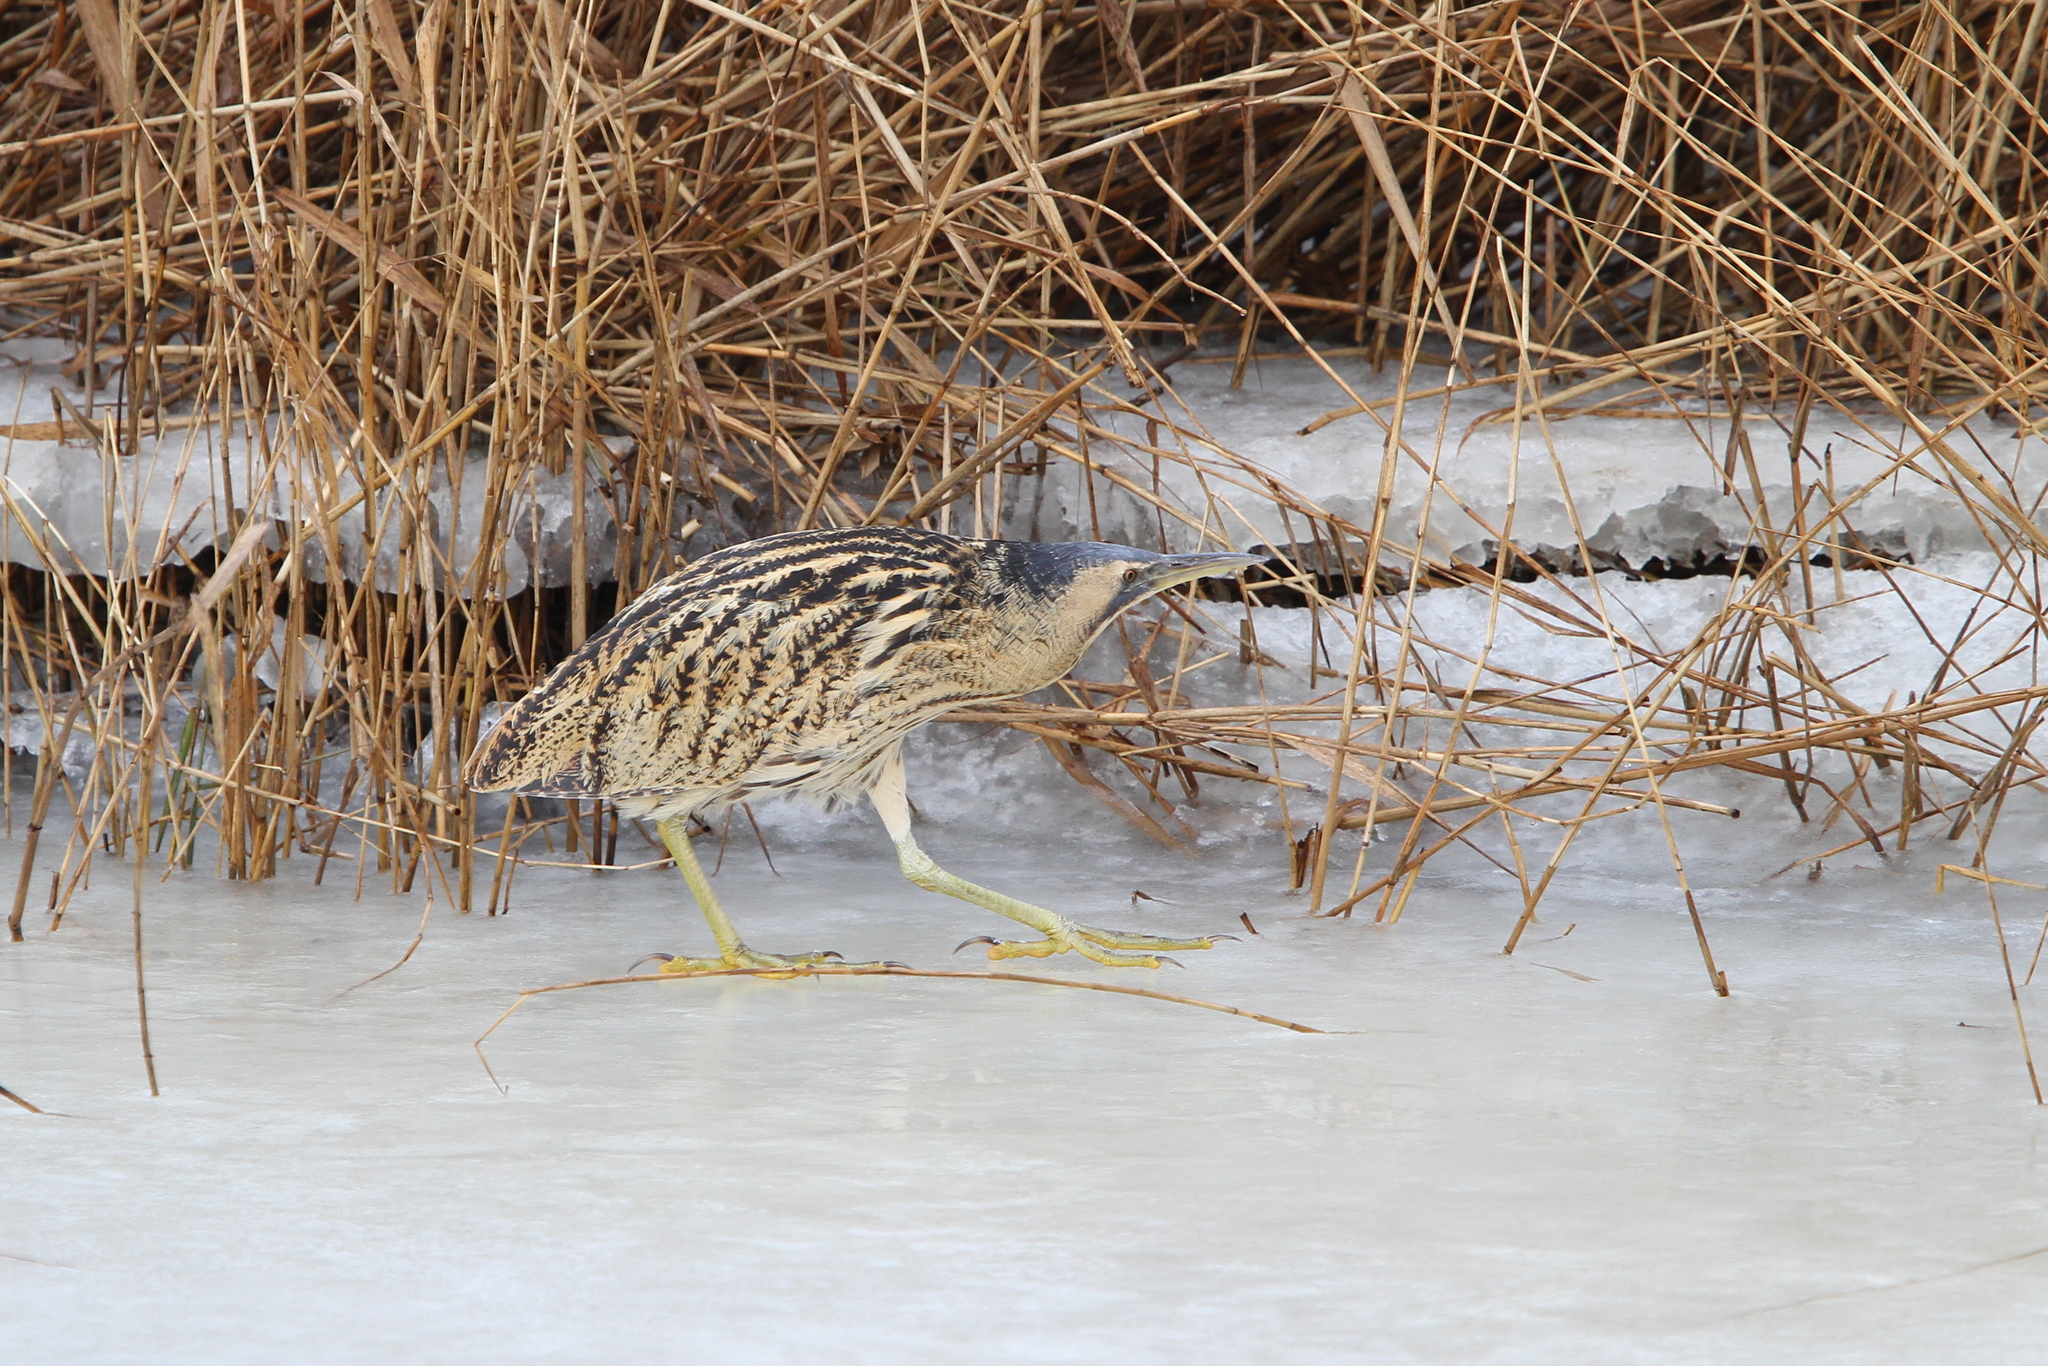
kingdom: Animalia
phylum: Chordata
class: Aves
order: Pelecaniformes
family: Ardeidae
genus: Botaurus
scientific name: Botaurus stellaris
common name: Eurasian bittern
